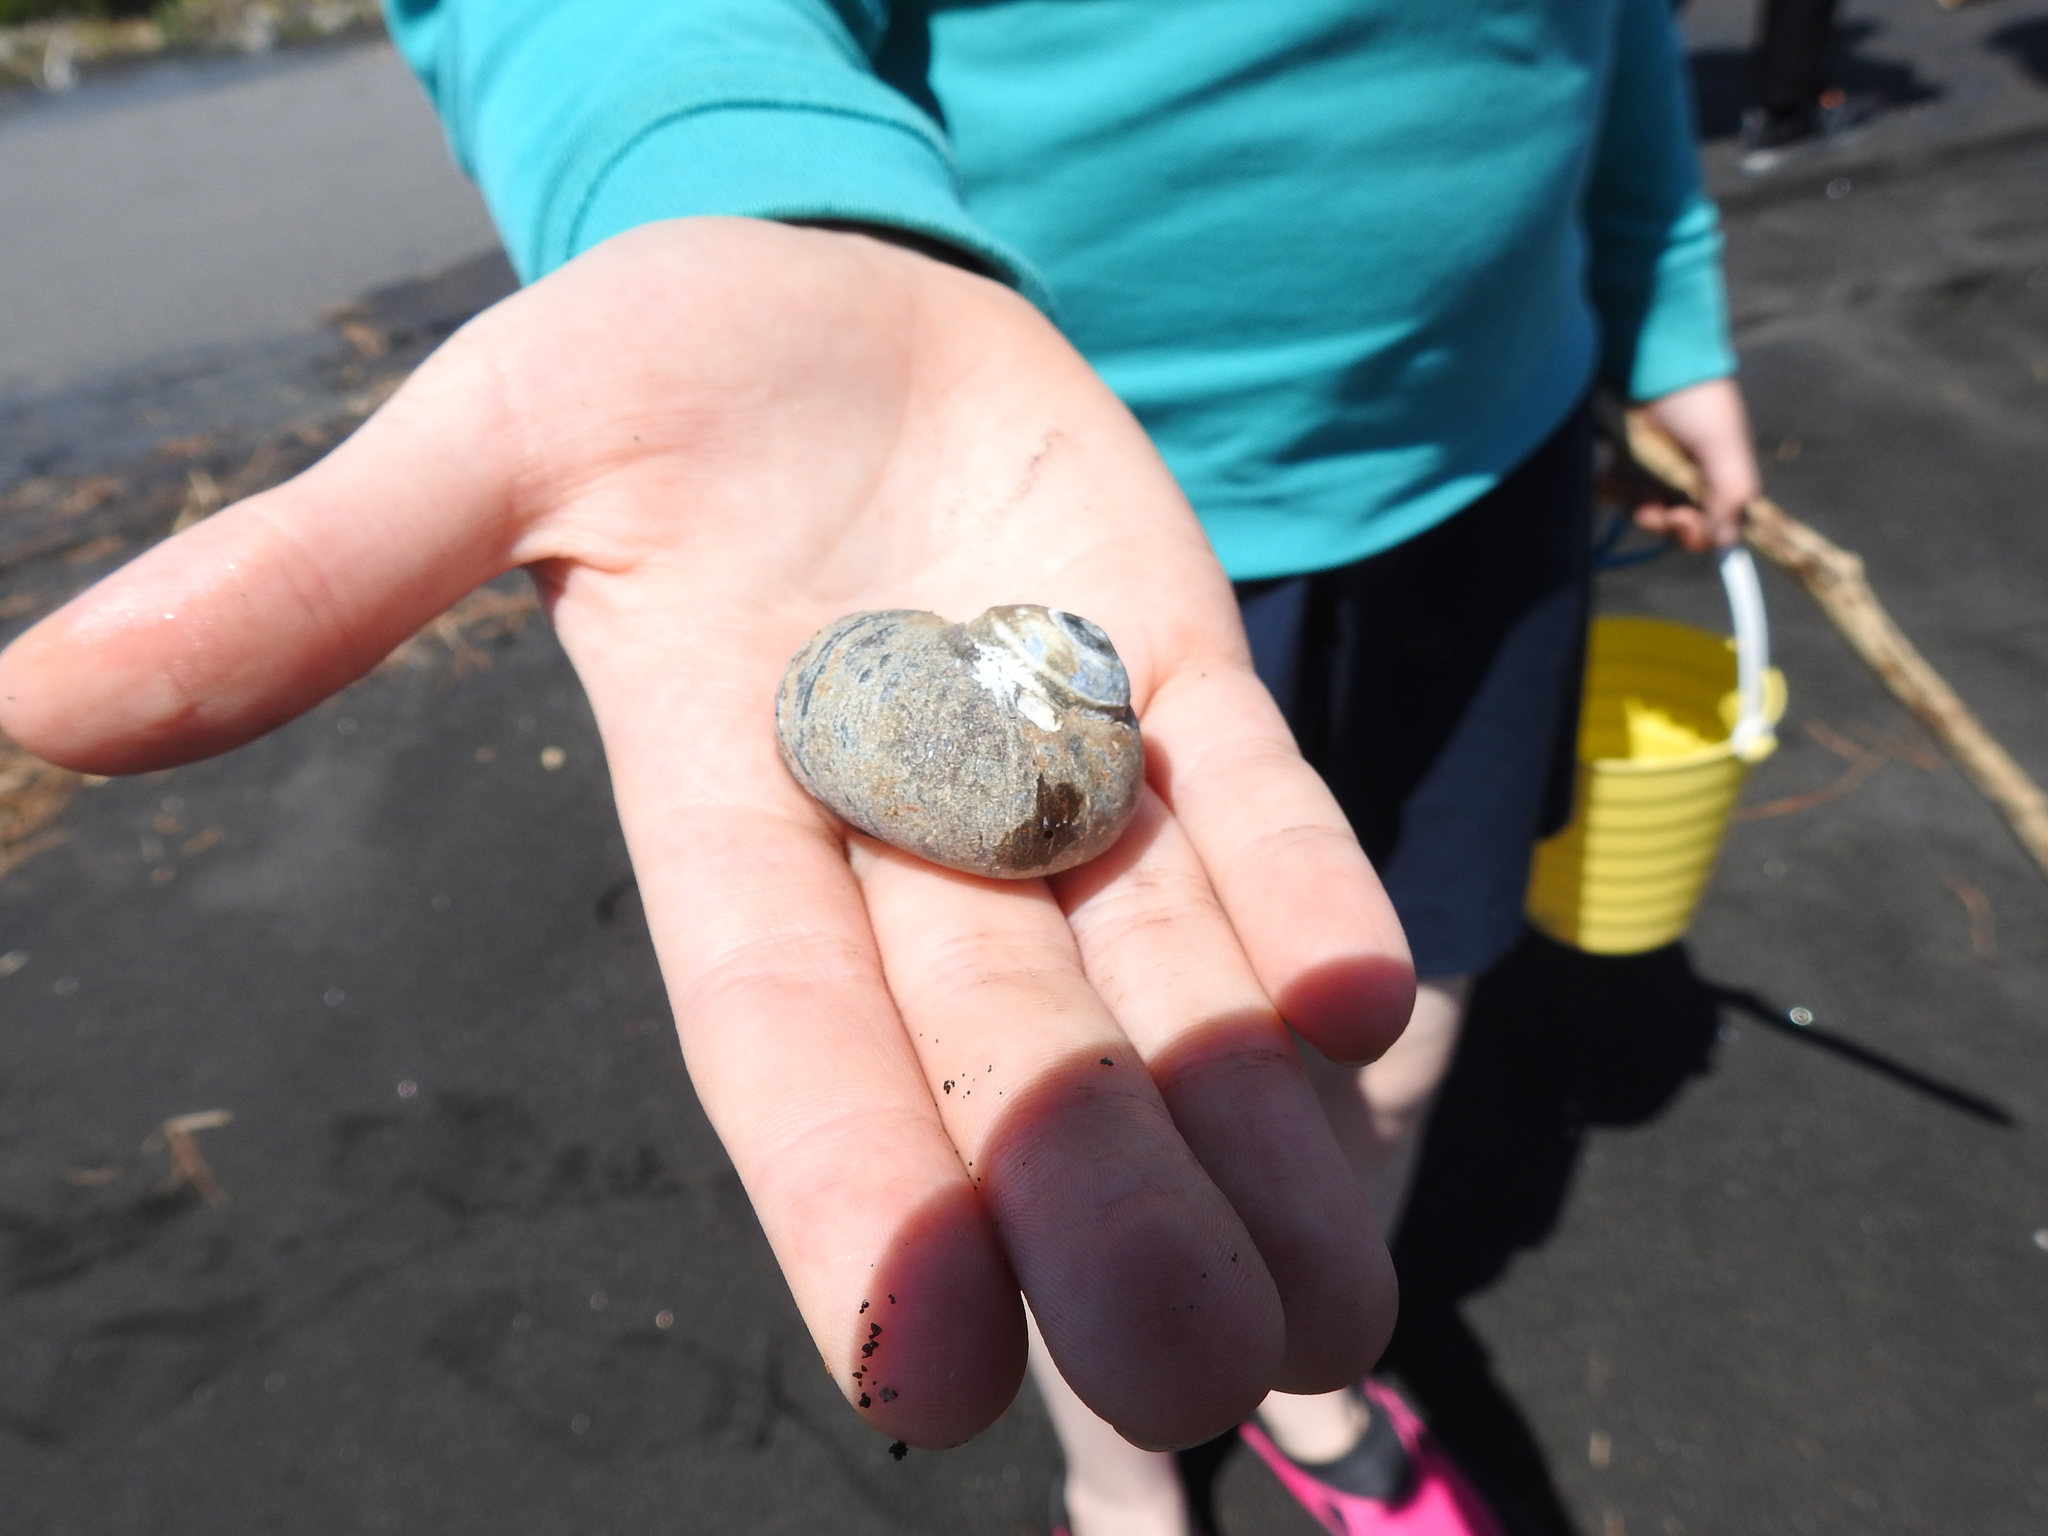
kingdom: Animalia
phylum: Mollusca
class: Gastropoda
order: Trochida
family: Turbinidae
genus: Lunella
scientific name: Lunella smaragda
